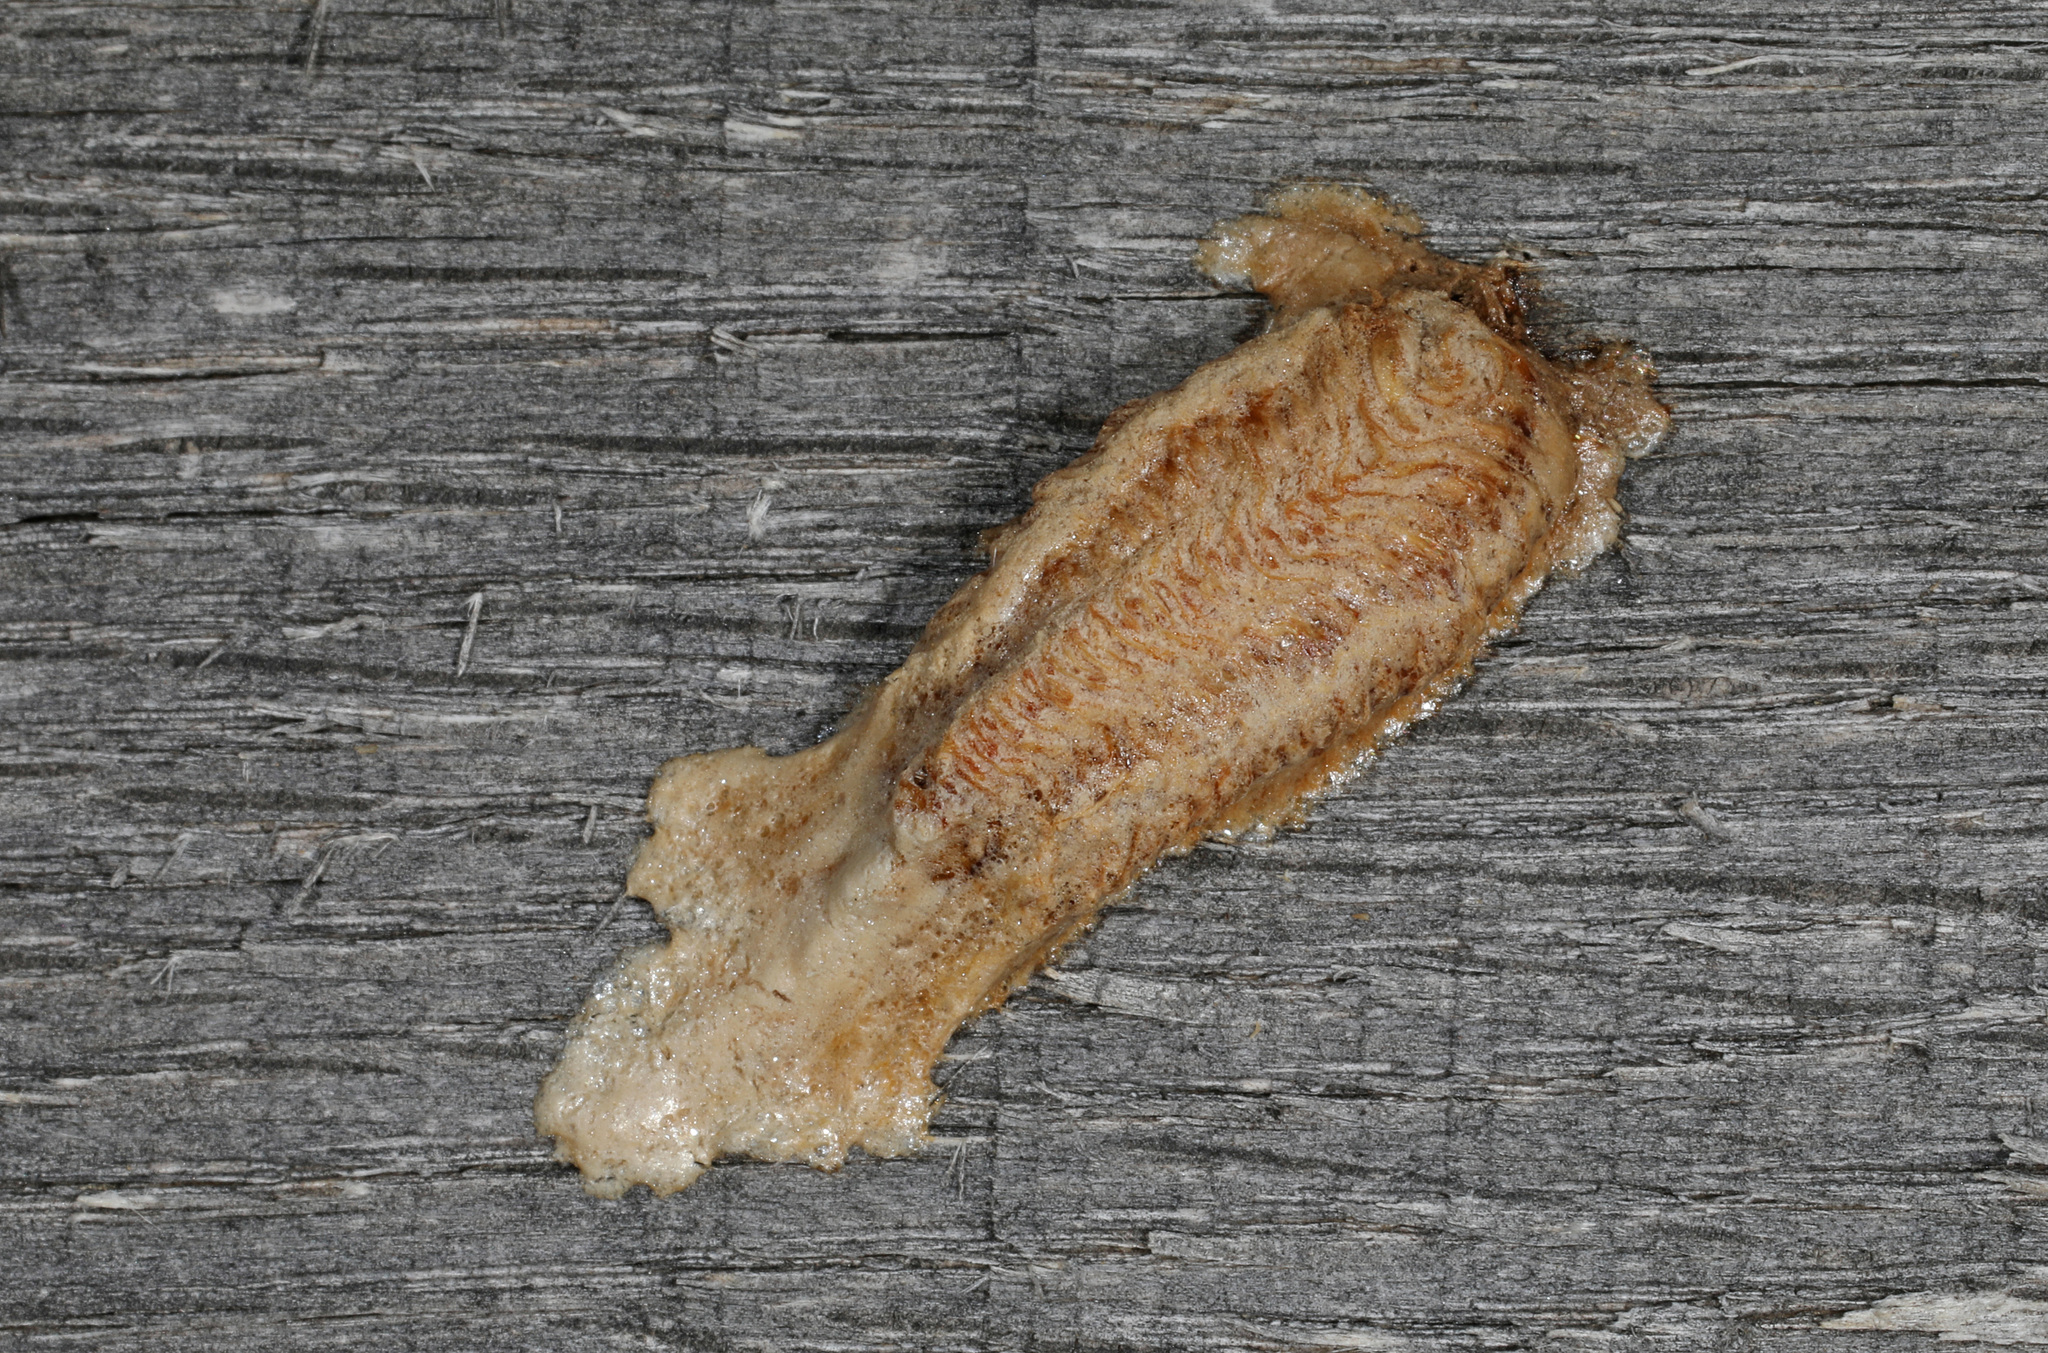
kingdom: Animalia
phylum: Arthropoda
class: Insecta
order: Mantodea
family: Mantidae
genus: Tenodera
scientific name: Tenodera angustipennis
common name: Asian mantis
